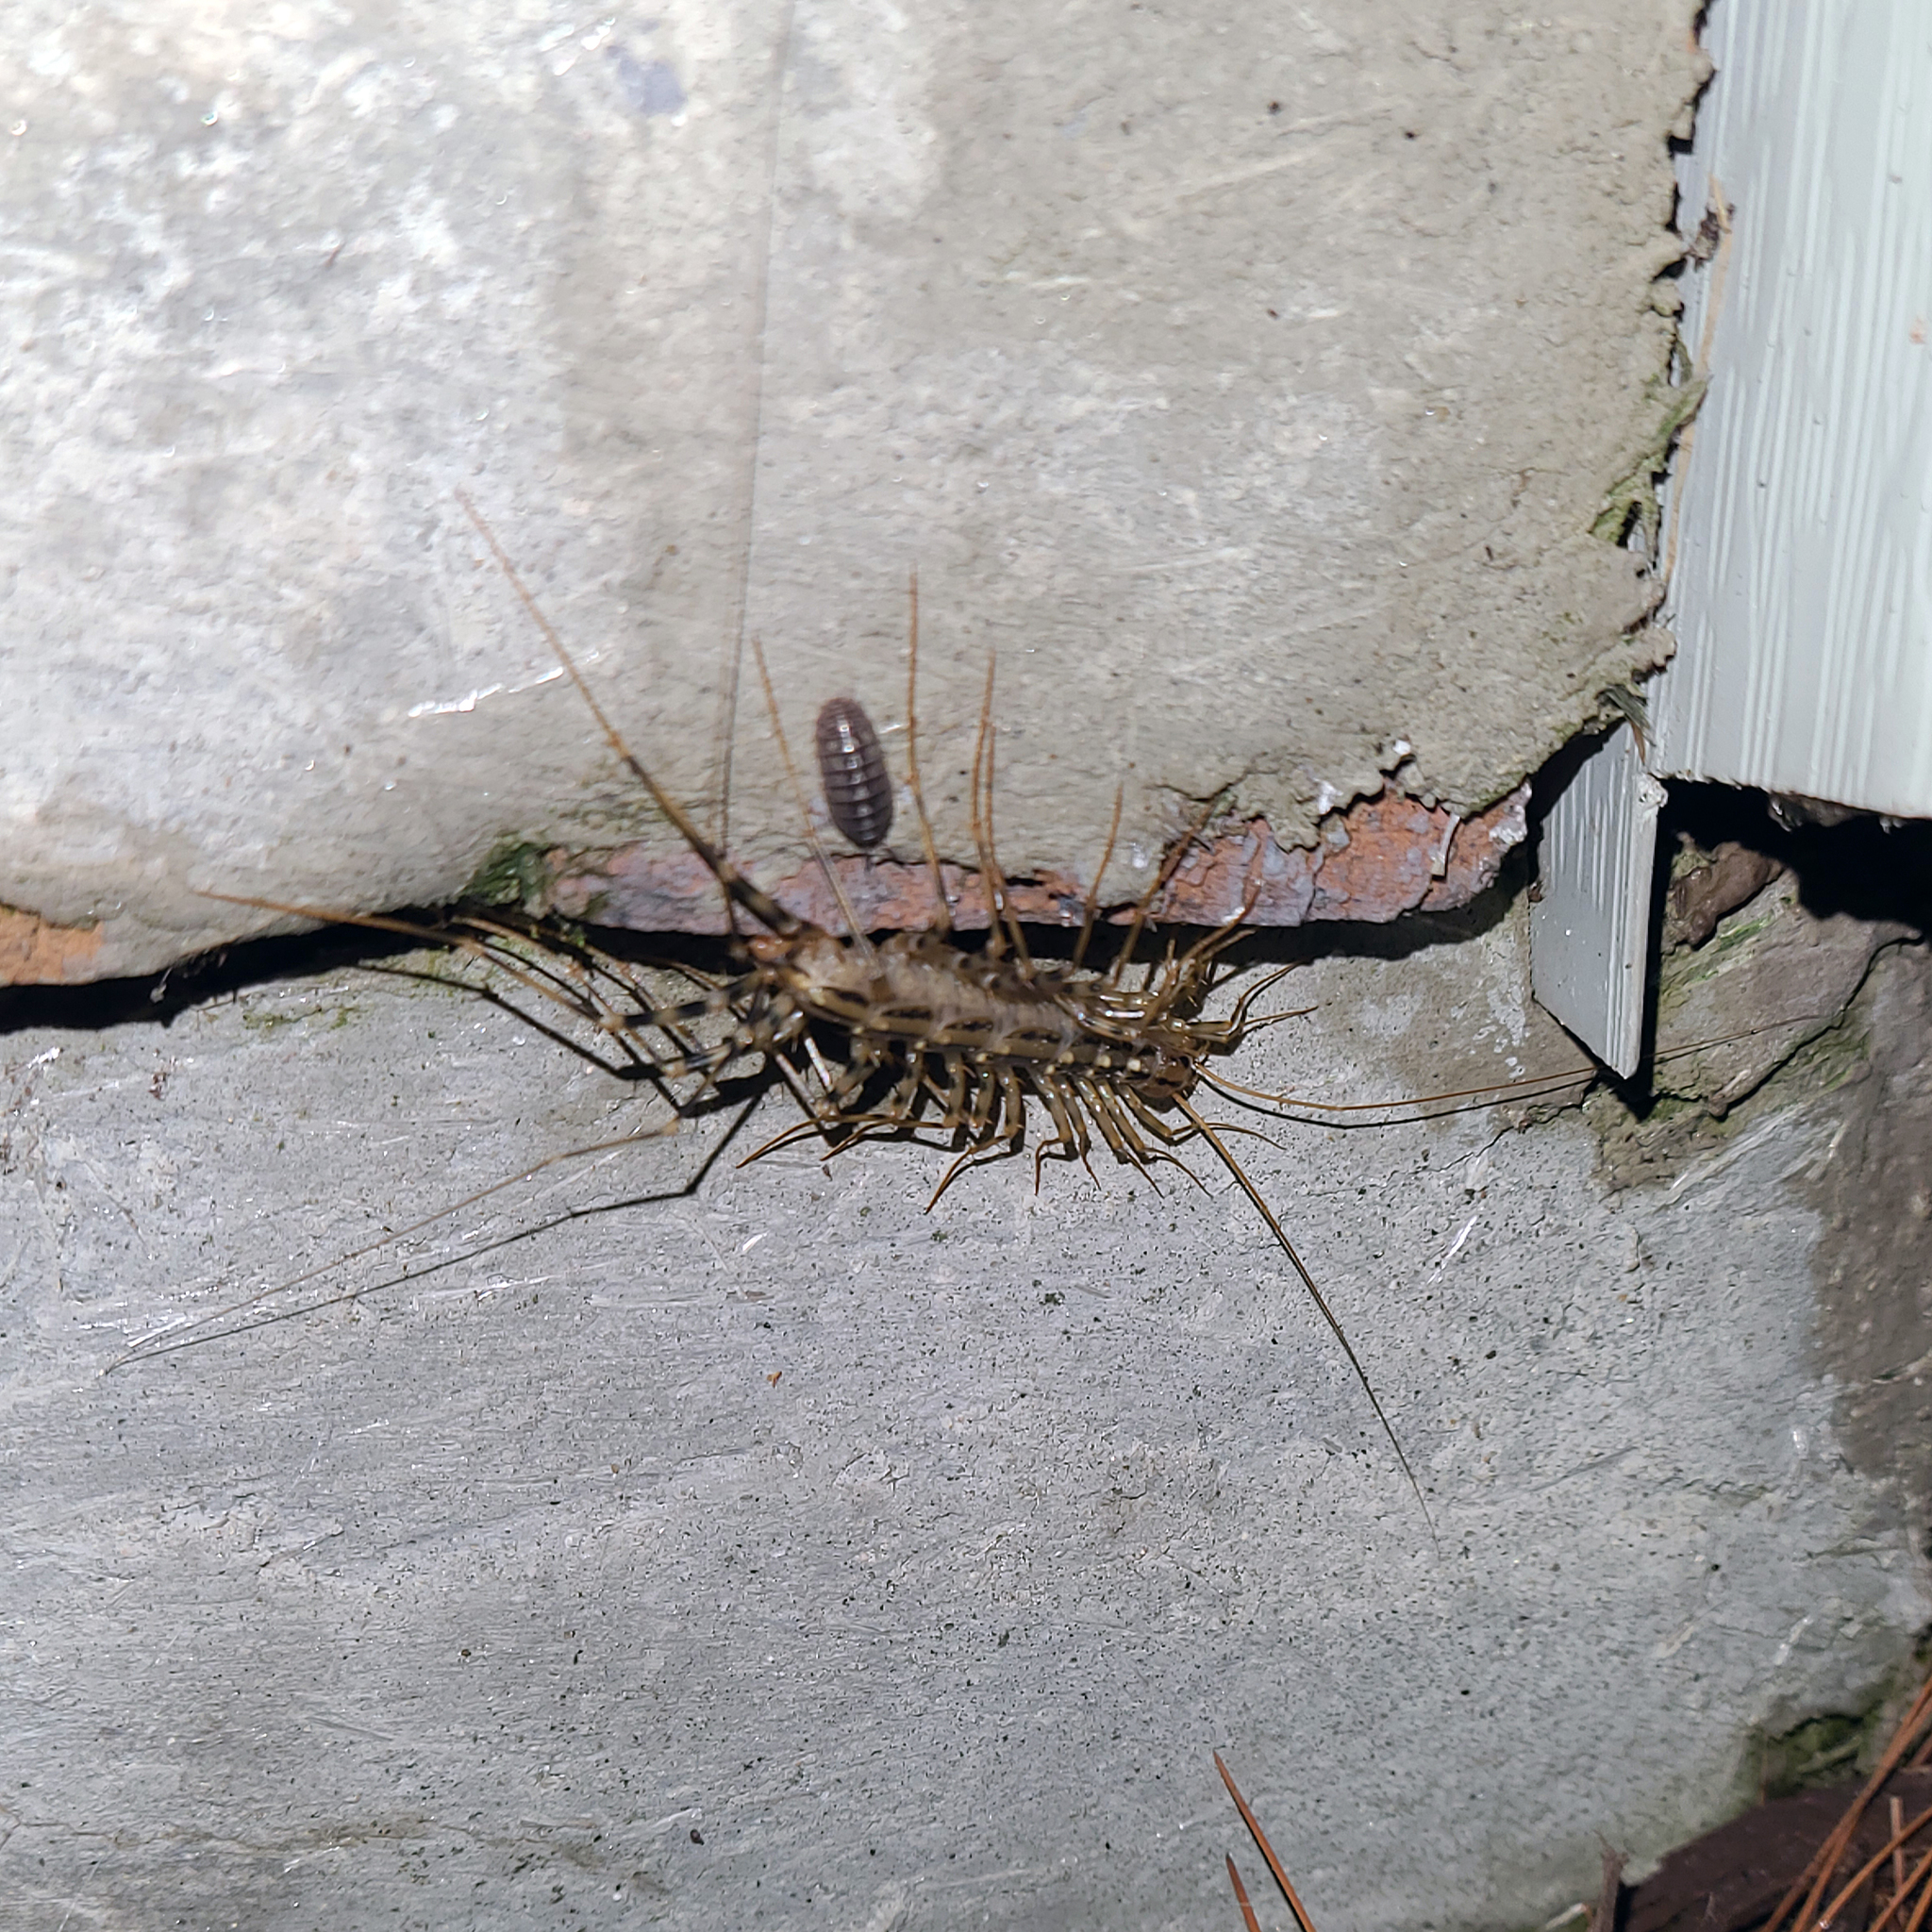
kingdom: Animalia
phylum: Arthropoda
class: Chilopoda
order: Scutigeromorpha
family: Scutigeridae
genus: Scutigera
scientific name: Scutigera coleoptrata
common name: House centipede
